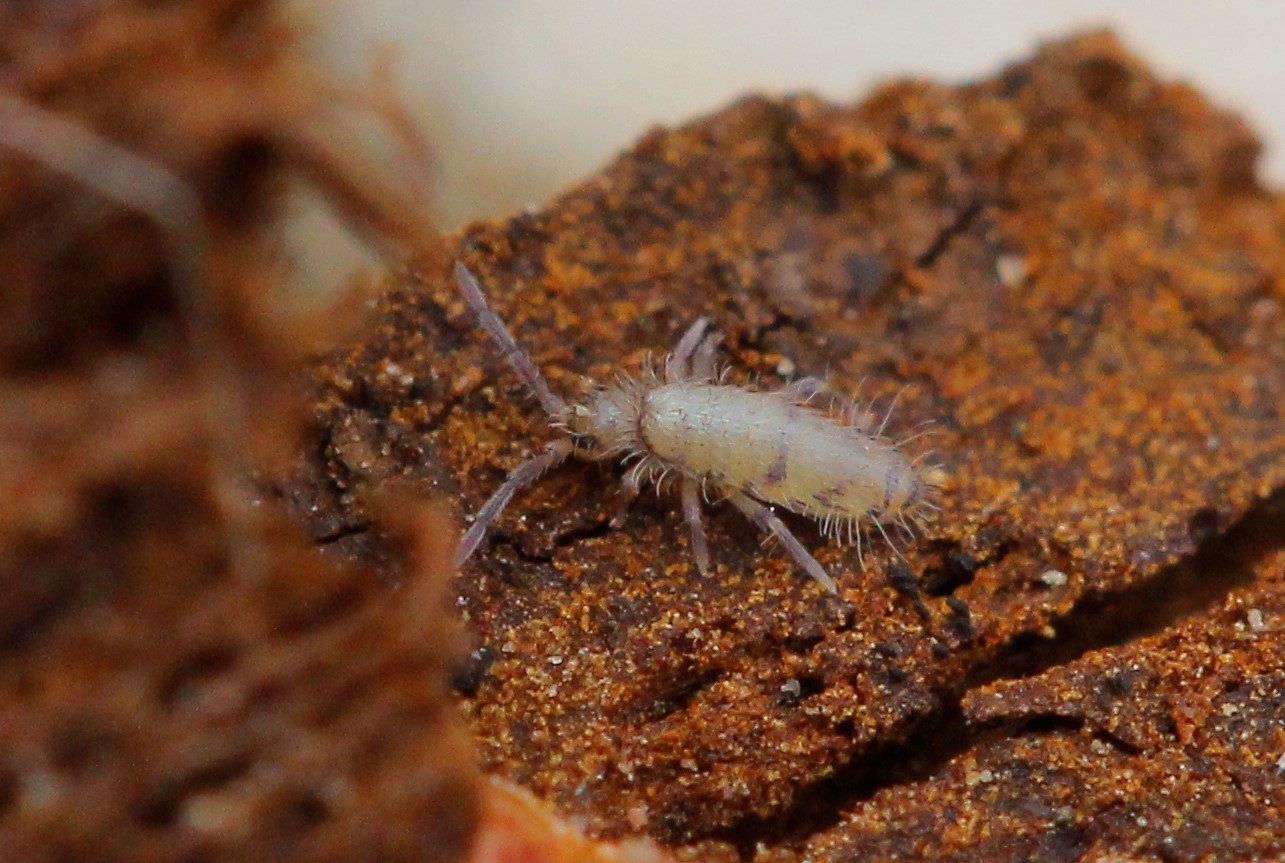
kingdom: Animalia
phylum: Arthropoda
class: Collembola
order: Entomobryomorpha
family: Entomobryidae
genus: Willowsia
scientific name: Willowsia nigromaculata
